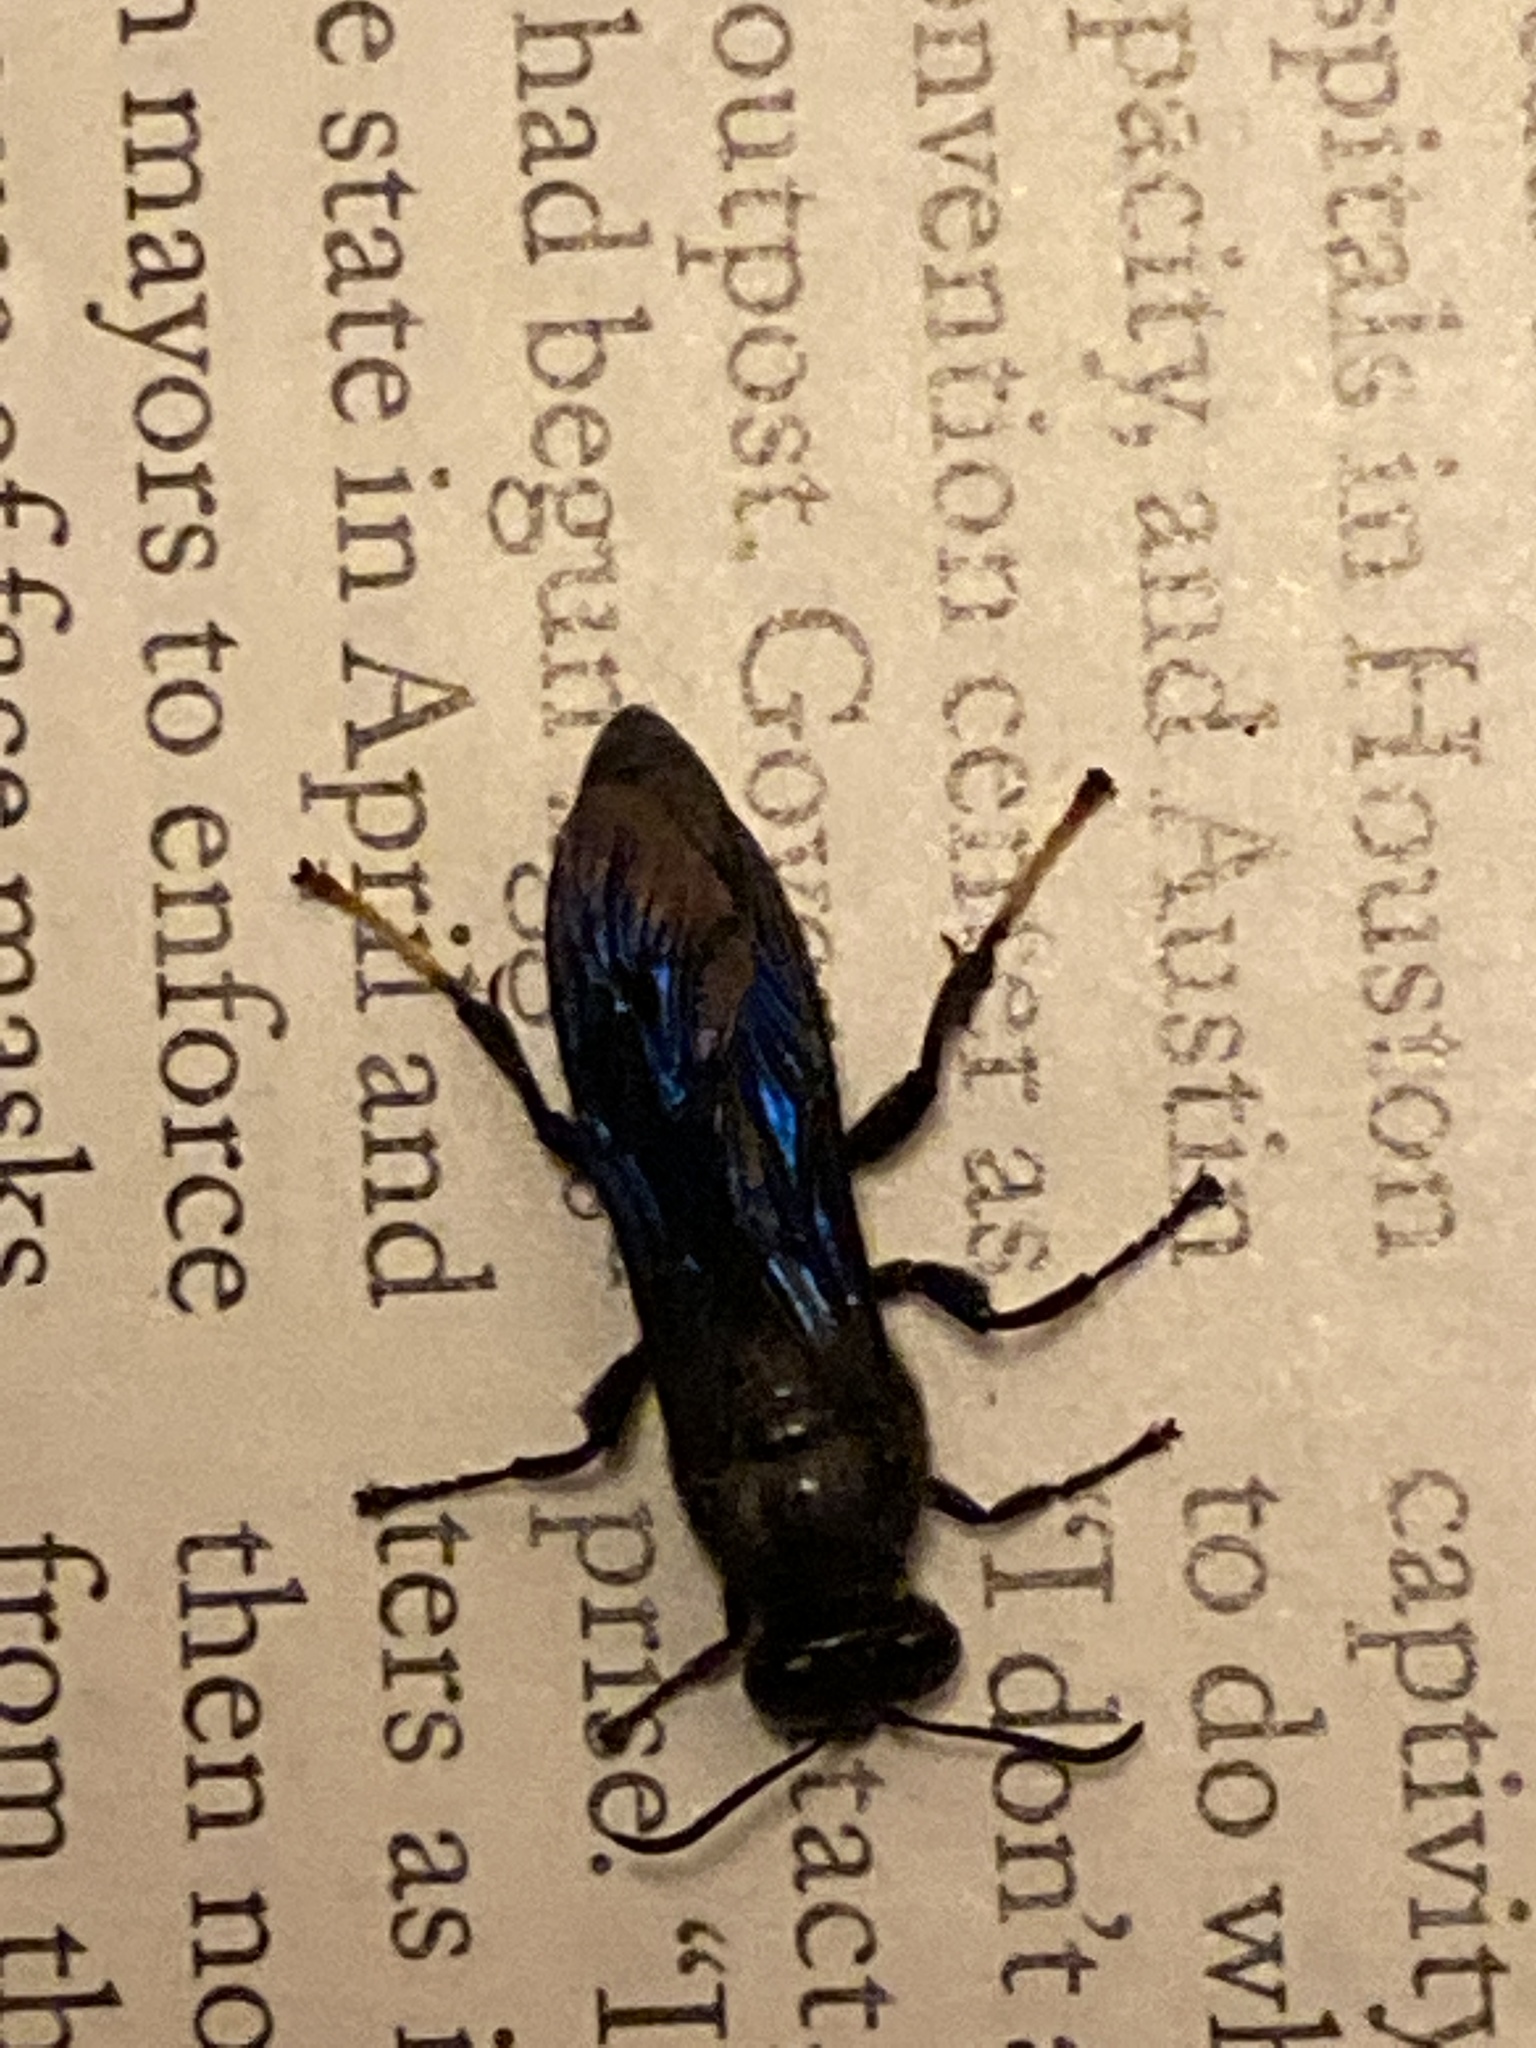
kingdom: Animalia
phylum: Arthropoda
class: Insecta
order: Hymenoptera
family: Crabronidae
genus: Trypoxylon
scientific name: Trypoxylon politum
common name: Organ-pipe mud-dauber wasp
